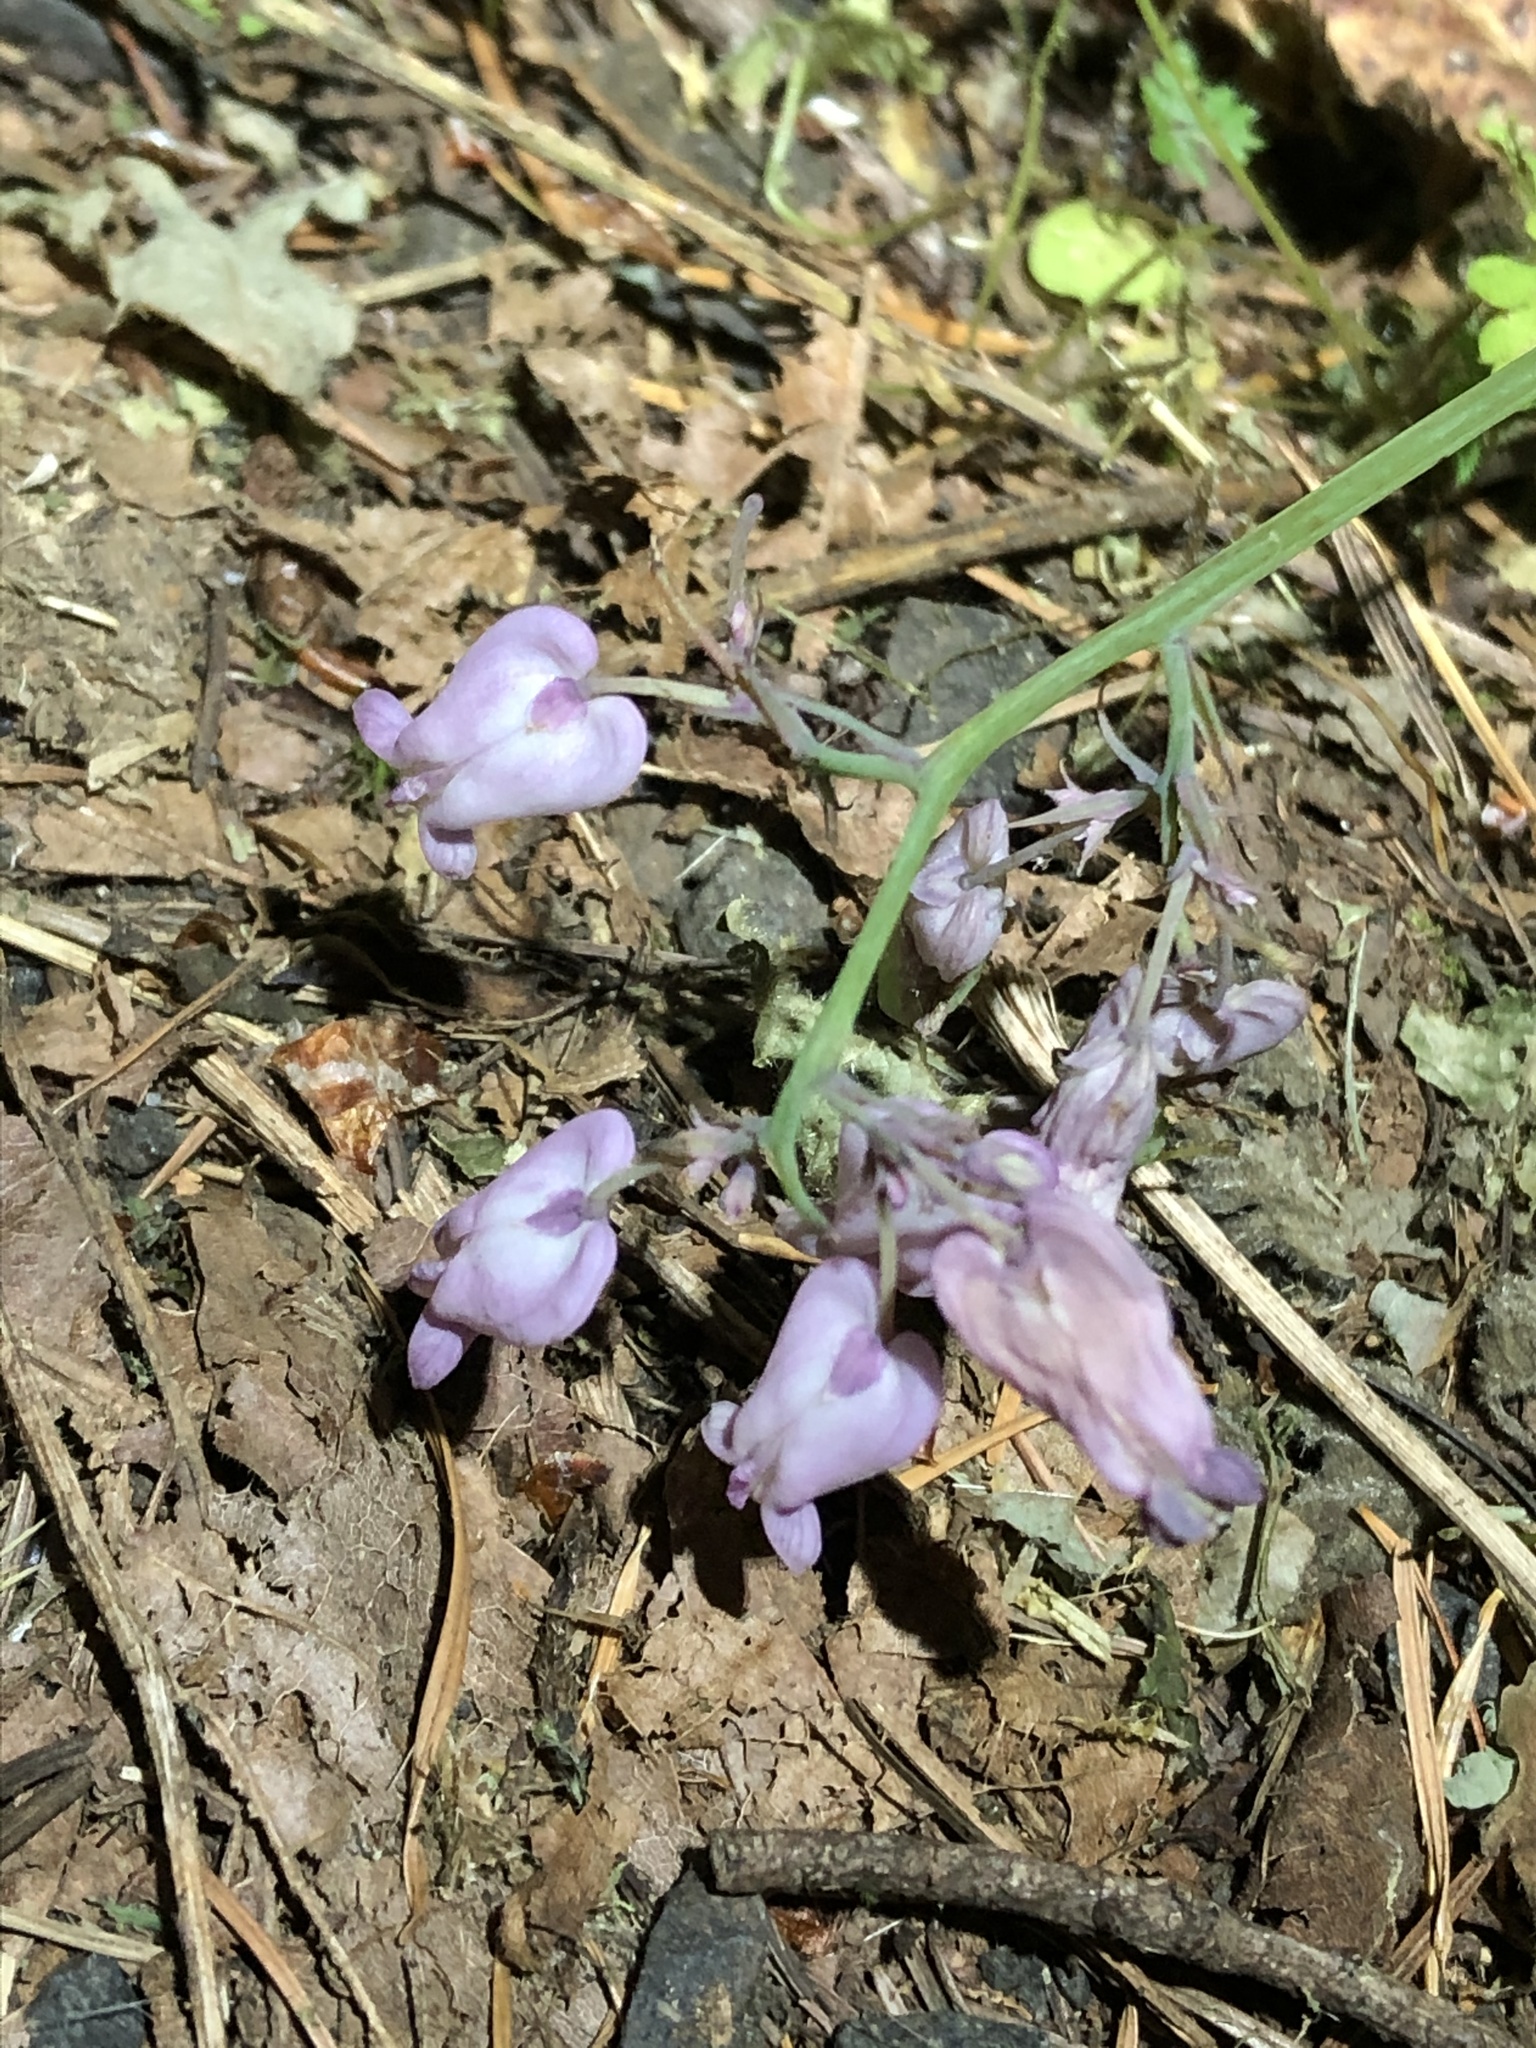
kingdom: Plantae
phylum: Tracheophyta
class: Magnoliopsida
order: Ranunculales
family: Papaveraceae
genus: Dicentra
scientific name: Dicentra formosa
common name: Bleeding-heart
